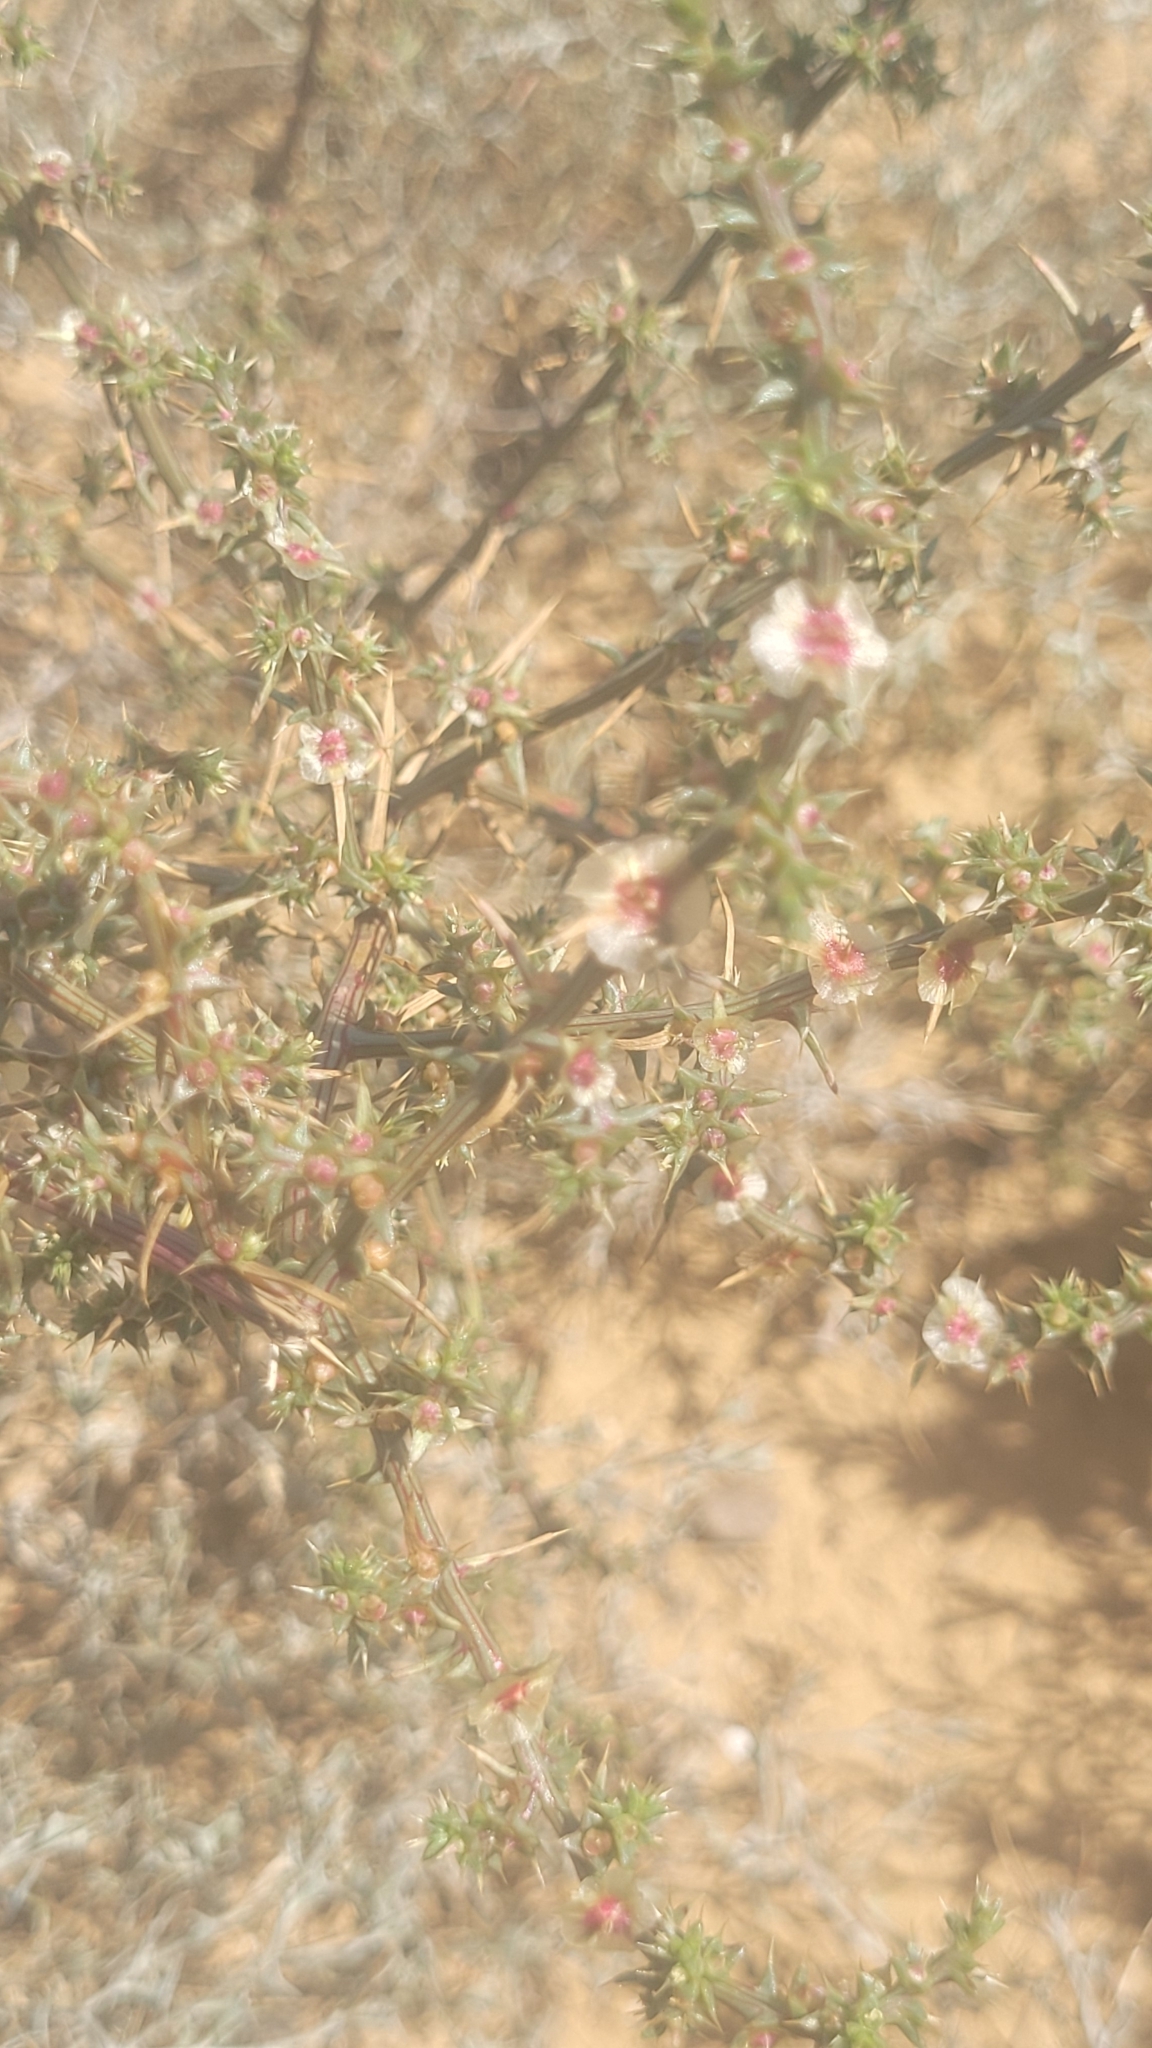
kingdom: Plantae
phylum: Tracheophyta
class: Magnoliopsida
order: Caryophyllales
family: Amaranthaceae
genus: Salsola
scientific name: Salsola tragus
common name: Prickly russian thistle
